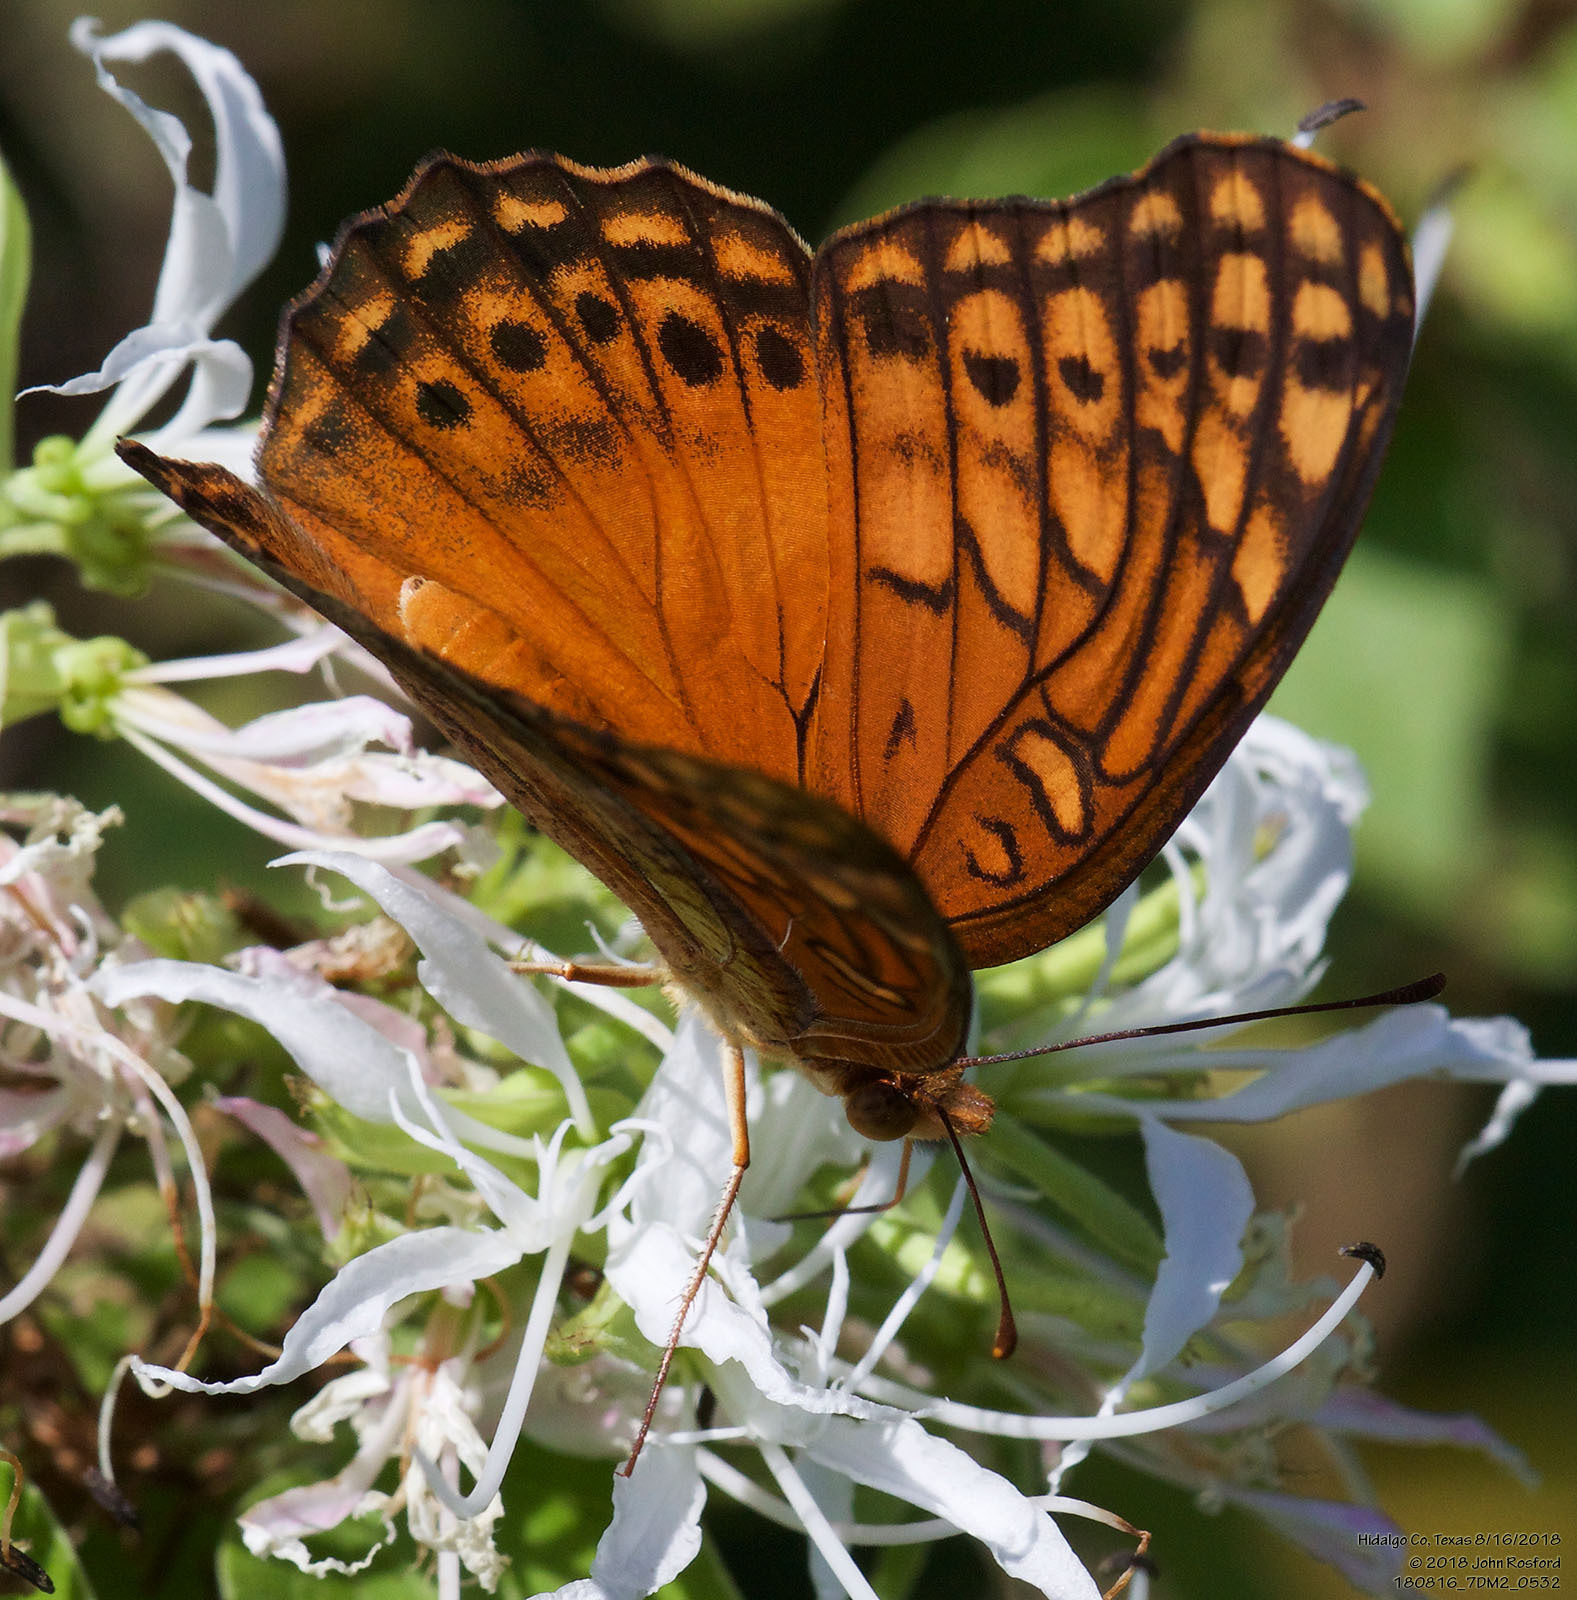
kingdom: Animalia
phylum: Arthropoda
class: Insecta
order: Lepidoptera
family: Nymphalidae
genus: Euptoieta
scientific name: Euptoieta hegesia
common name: Mexican fritillary
